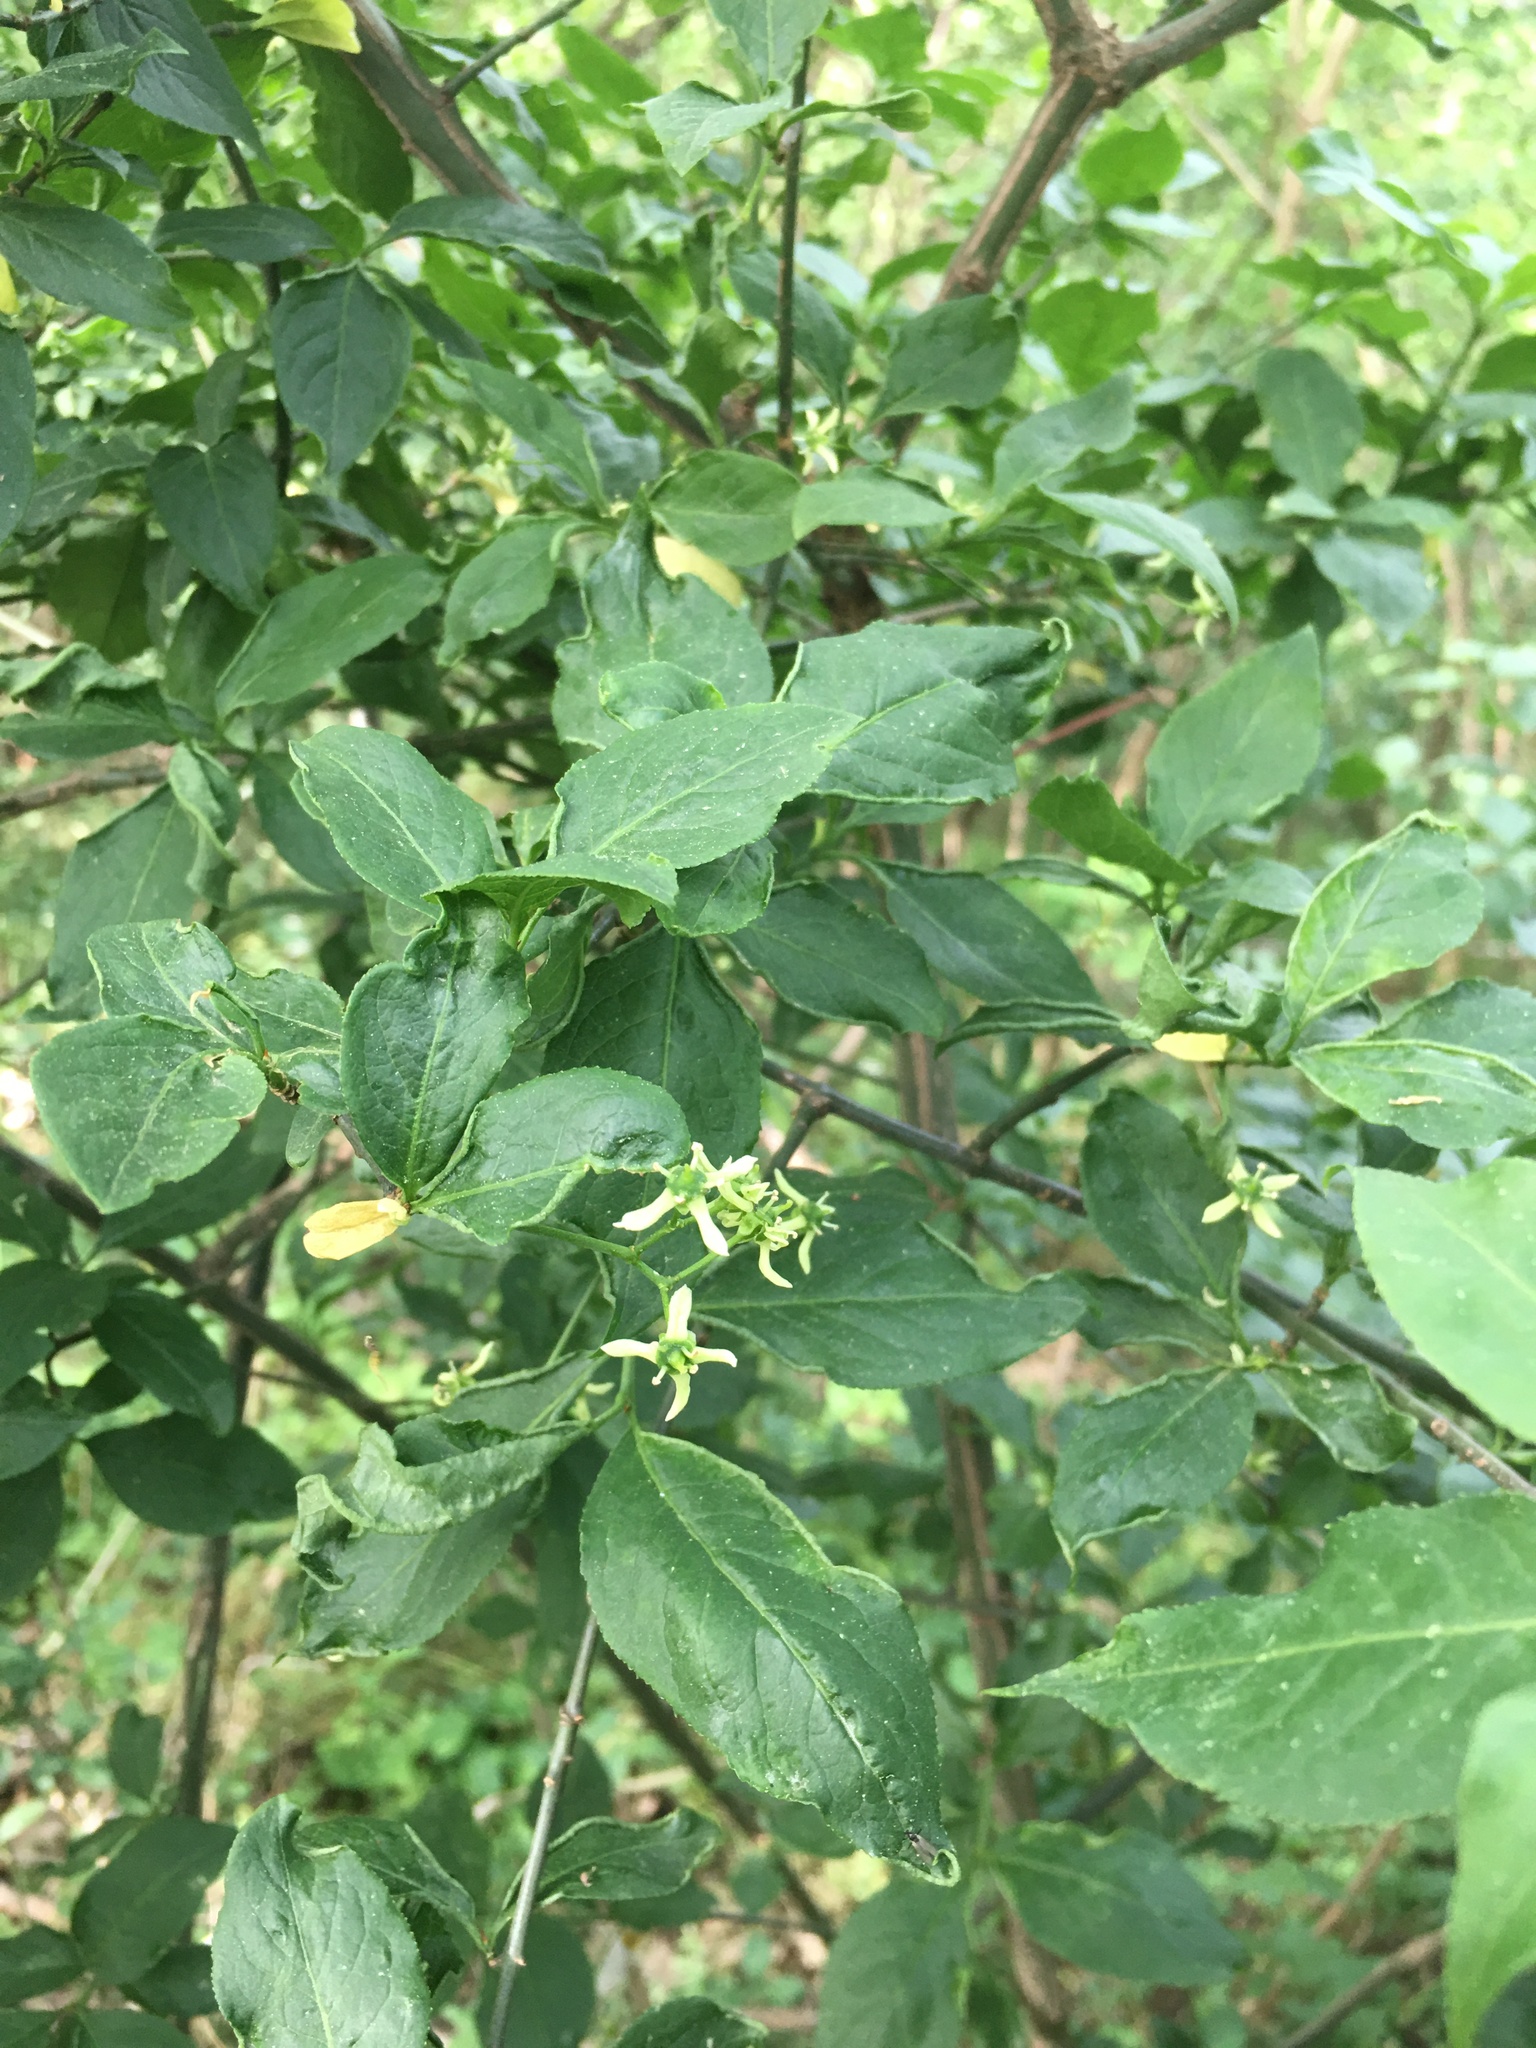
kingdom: Plantae
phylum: Tracheophyta
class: Magnoliopsida
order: Celastrales
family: Celastraceae
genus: Euonymus
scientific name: Euonymus europaeus
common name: Spindle
